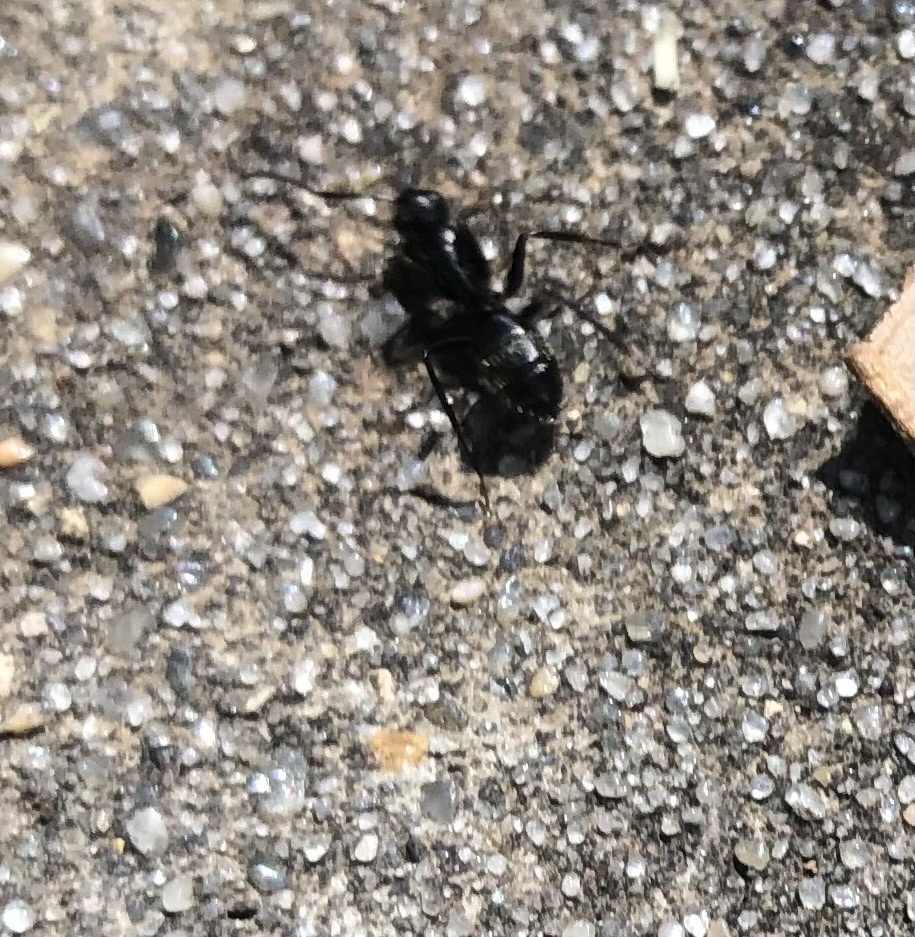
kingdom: Animalia
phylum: Arthropoda
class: Insecta
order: Hymenoptera
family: Formicidae
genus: Camponotus
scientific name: Camponotus pennsylvanicus
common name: Black carpenter ant
